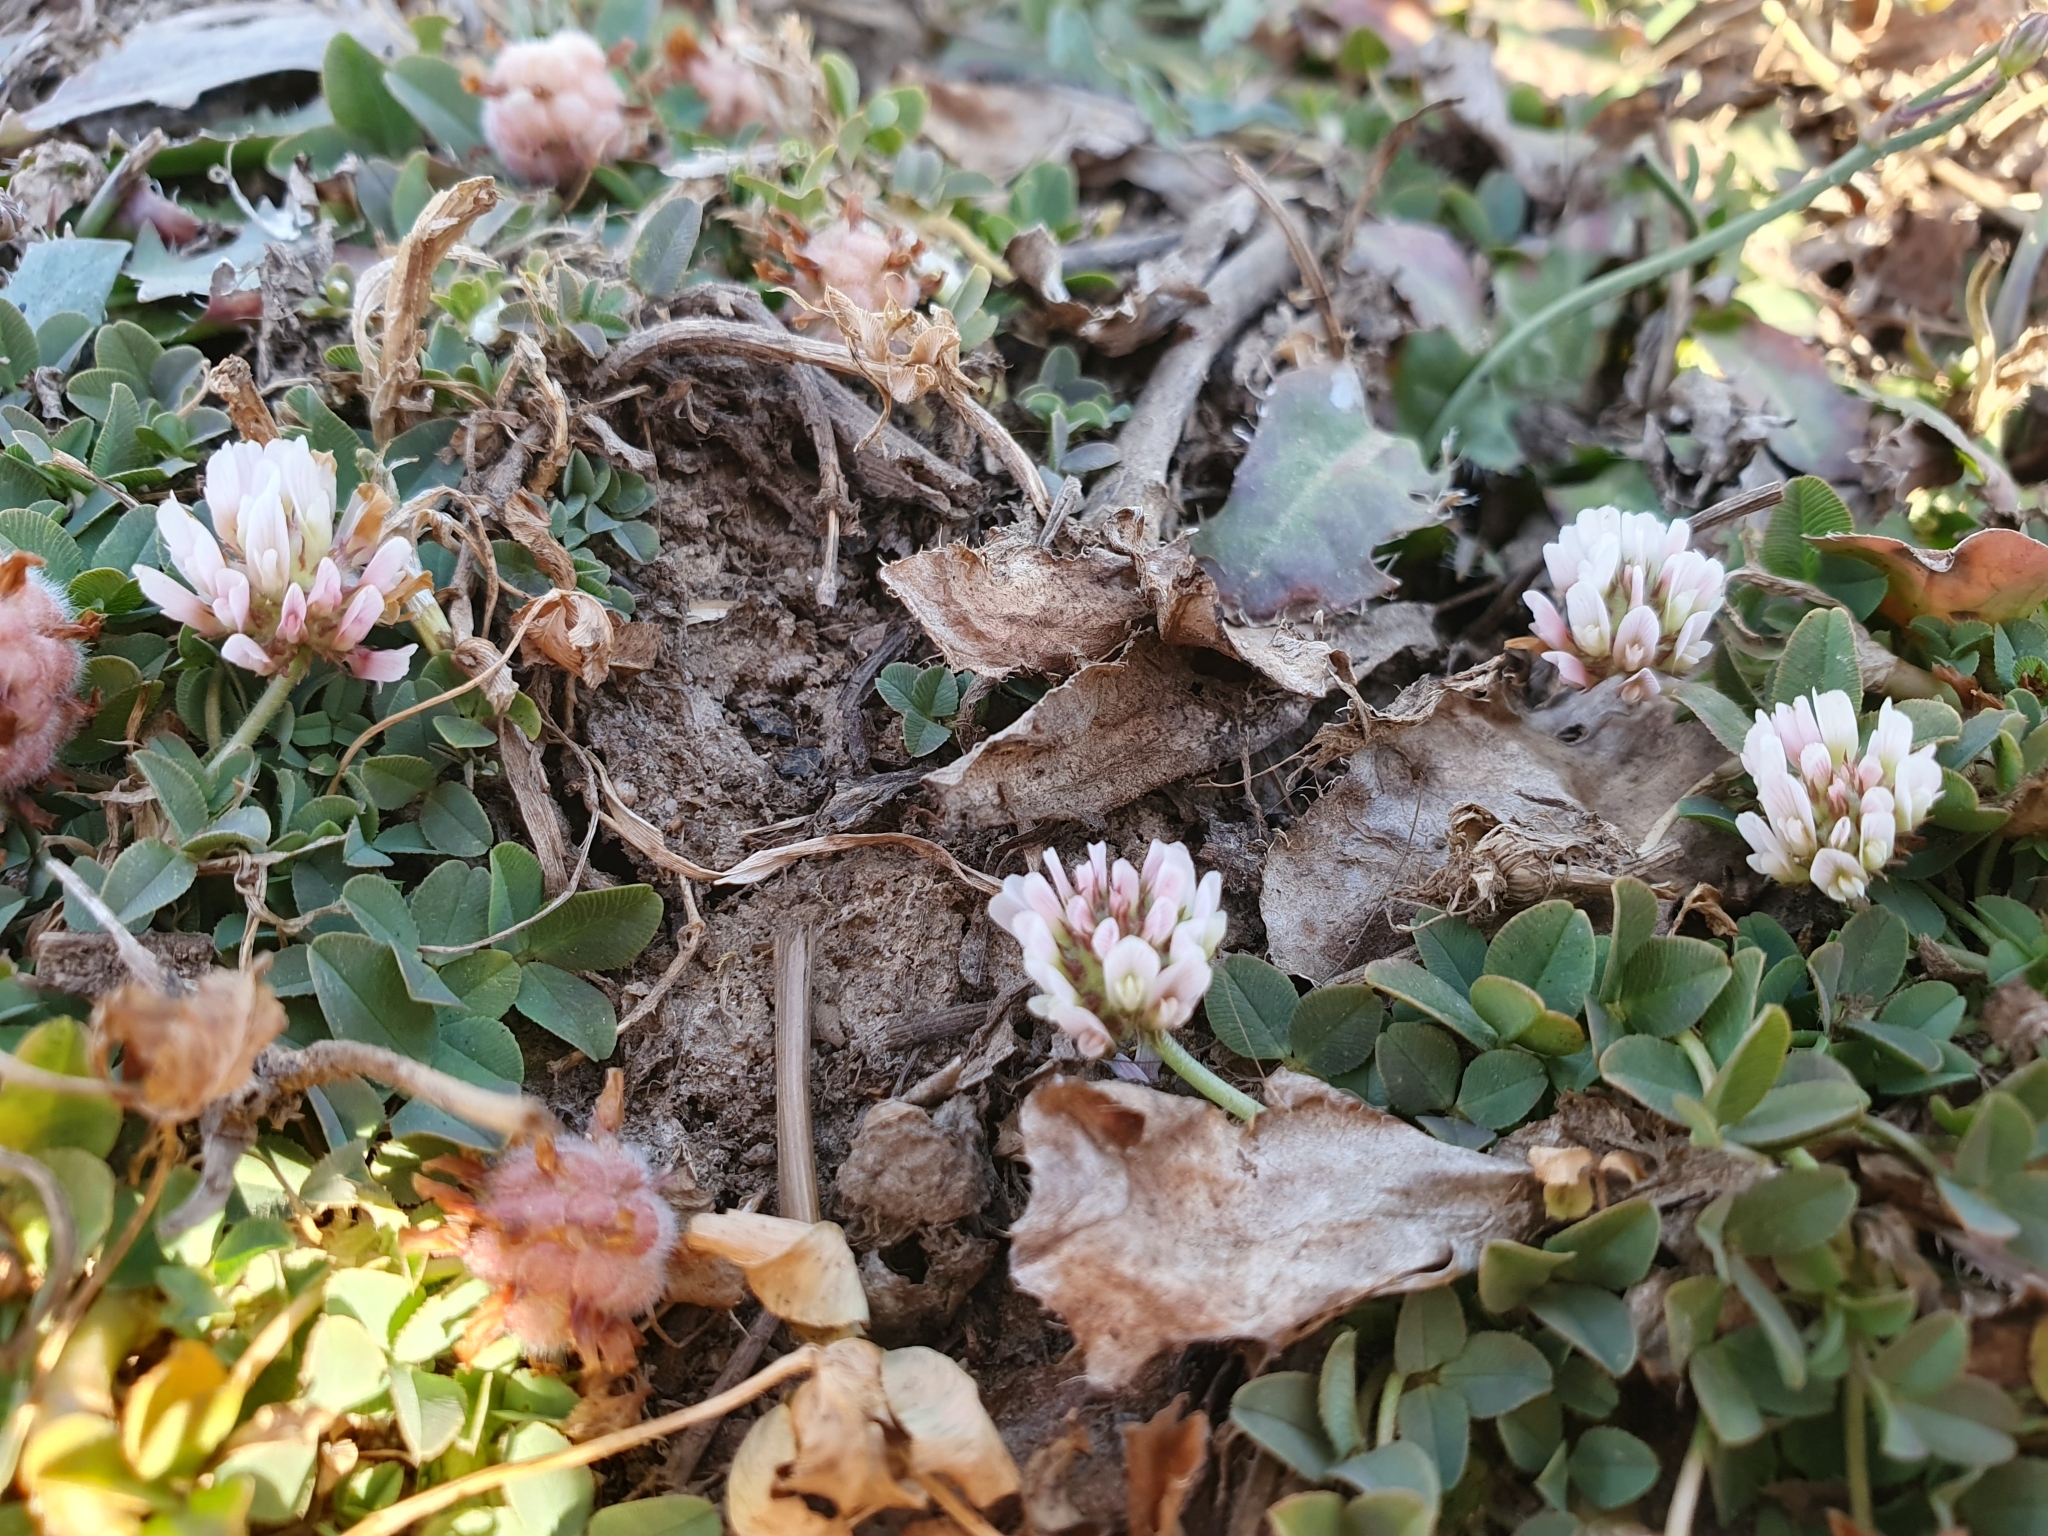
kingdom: Plantae
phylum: Tracheophyta
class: Magnoliopsida
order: Fabales
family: Fabaceae
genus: Trifolium
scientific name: Trifolium fragiferum
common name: Strawberry clover
